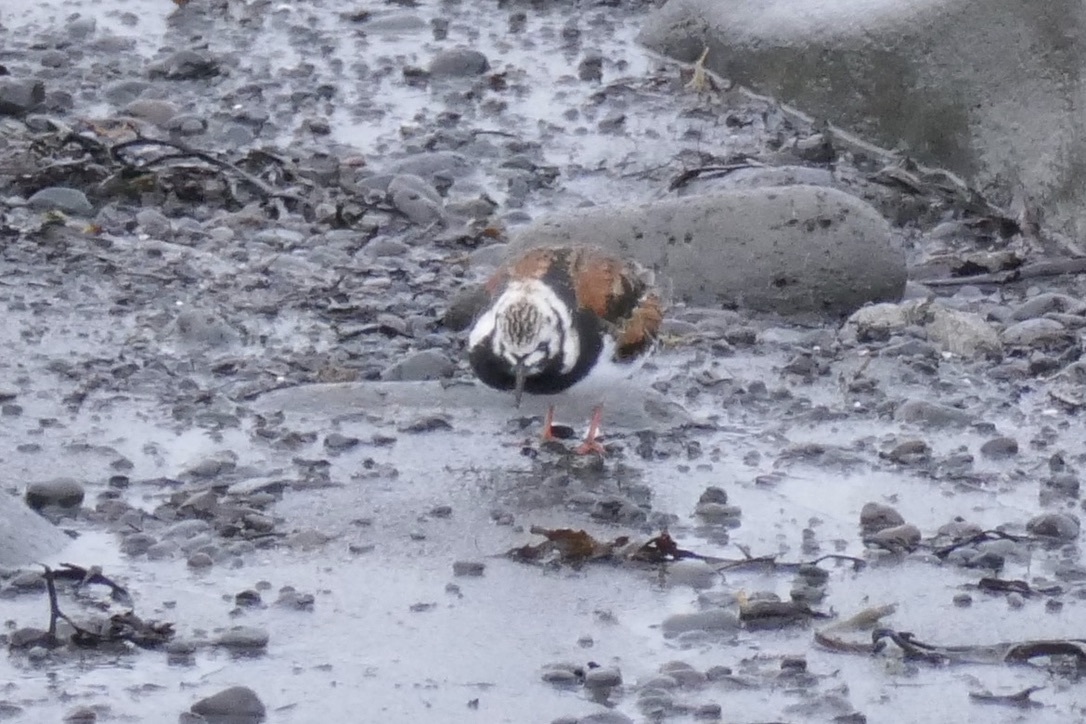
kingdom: Animalia
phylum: Chordata
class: Aves
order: Charadriiformes
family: Scolopacidae
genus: Arenaria
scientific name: Arenaria interpres
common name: Ruddy turnstone
